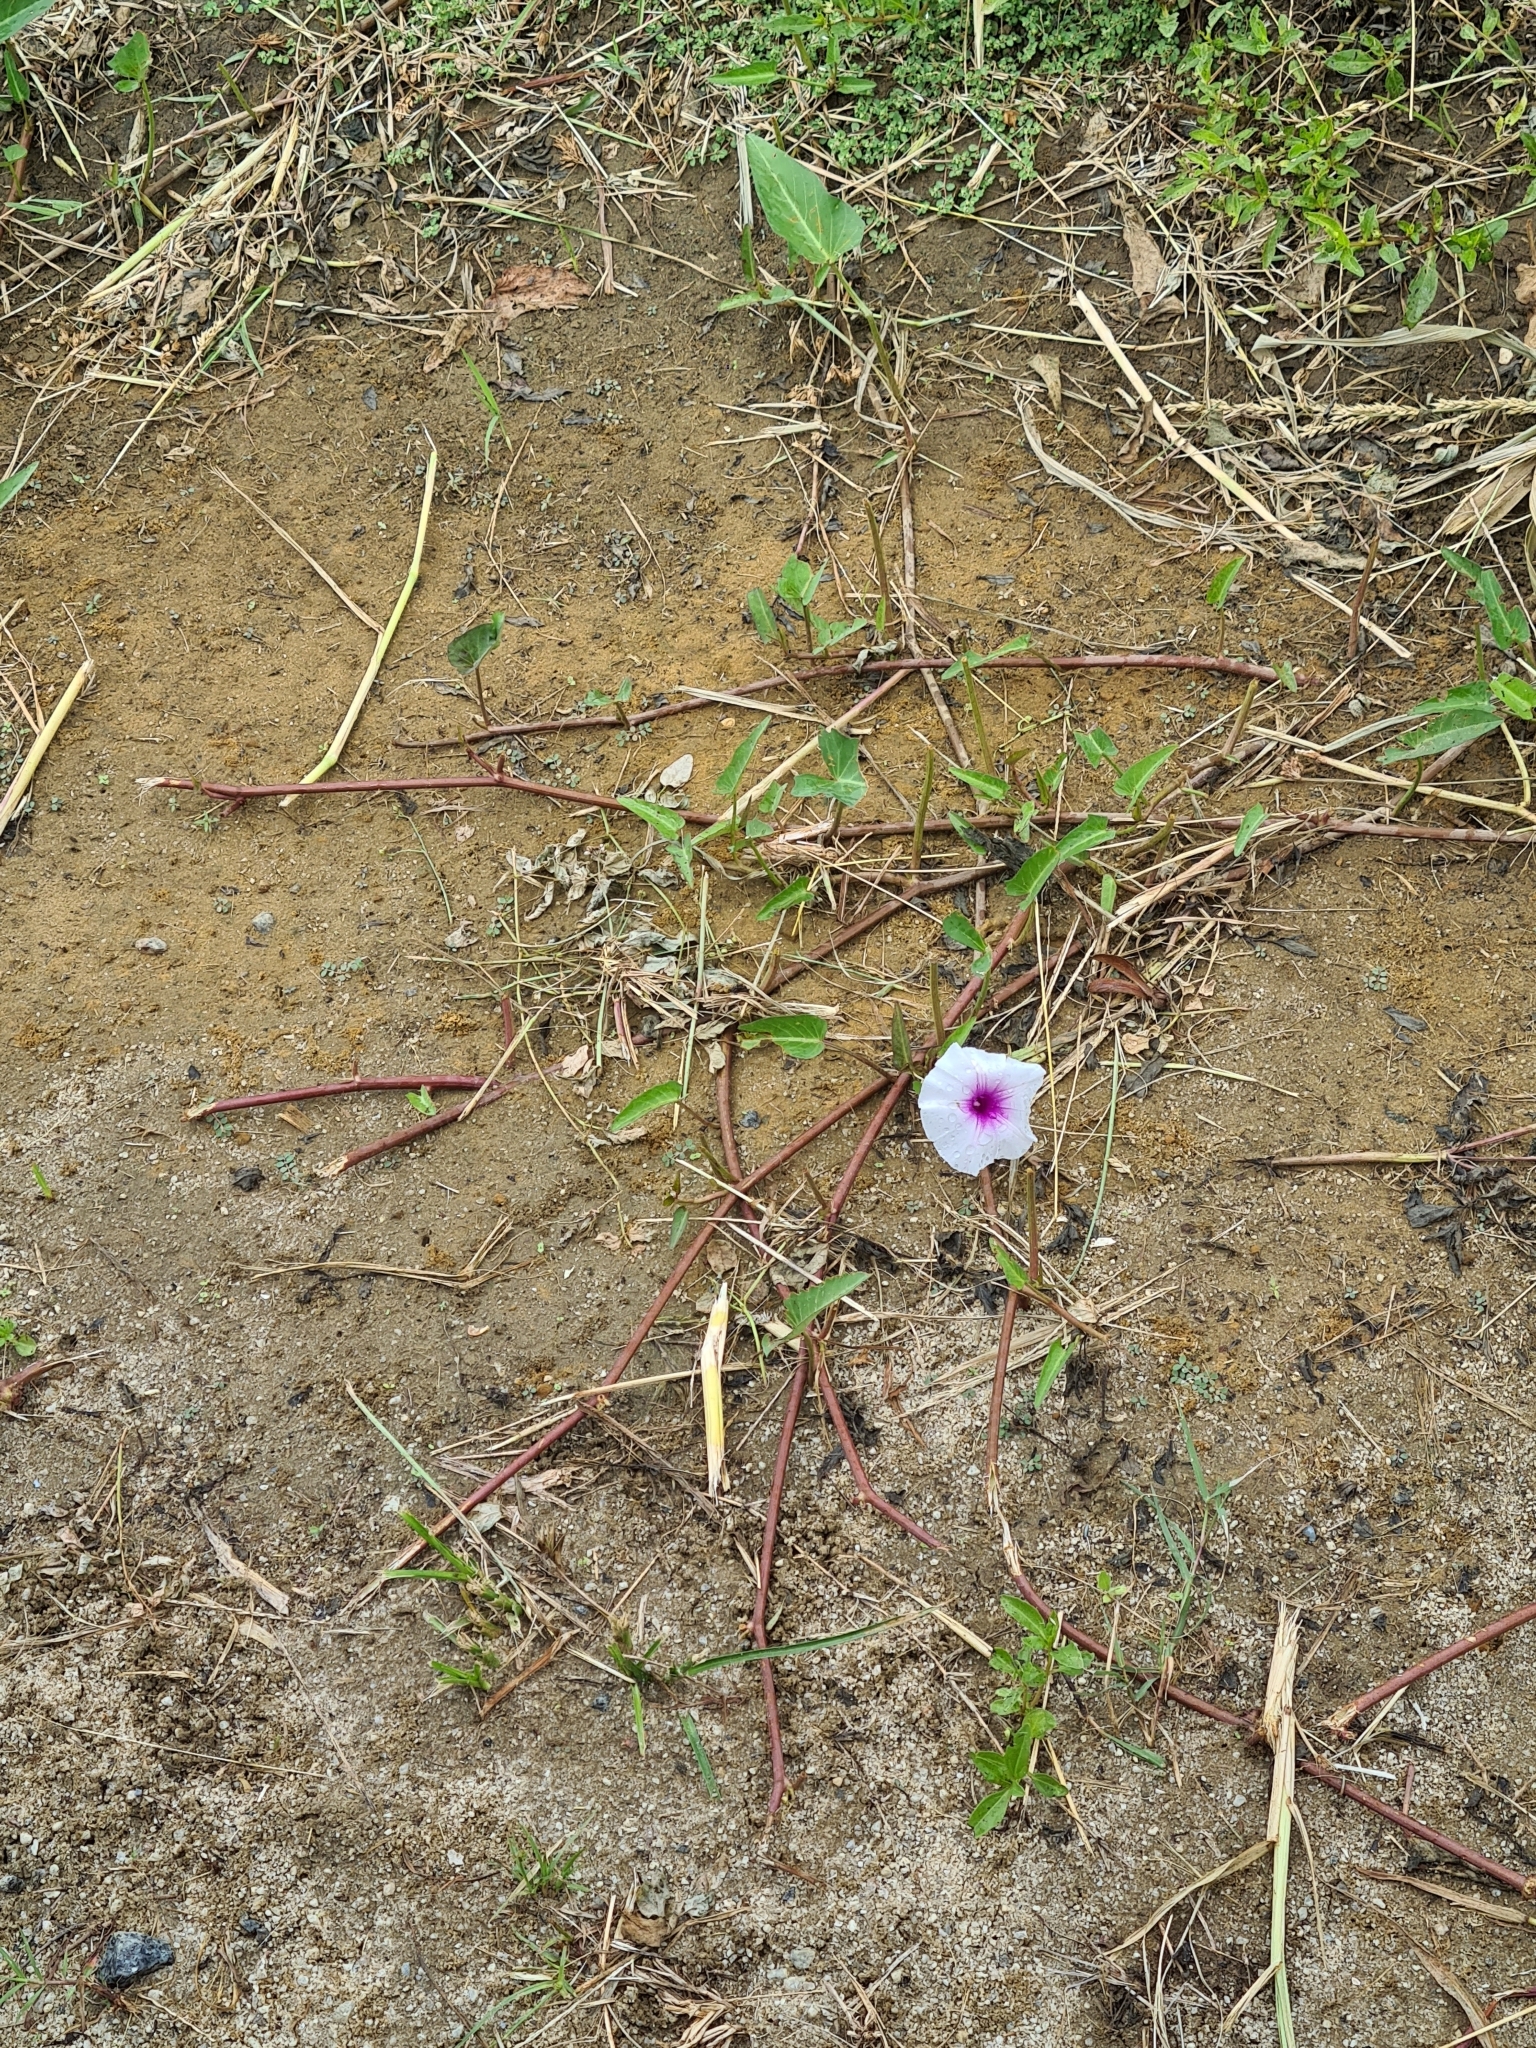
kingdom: Plantae
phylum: Tracheophyta
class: Magnoliopsida
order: Solanales
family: Convolvulaceae
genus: Ipomoea
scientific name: Ipomoea aquatica
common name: Swamp morning-glory
